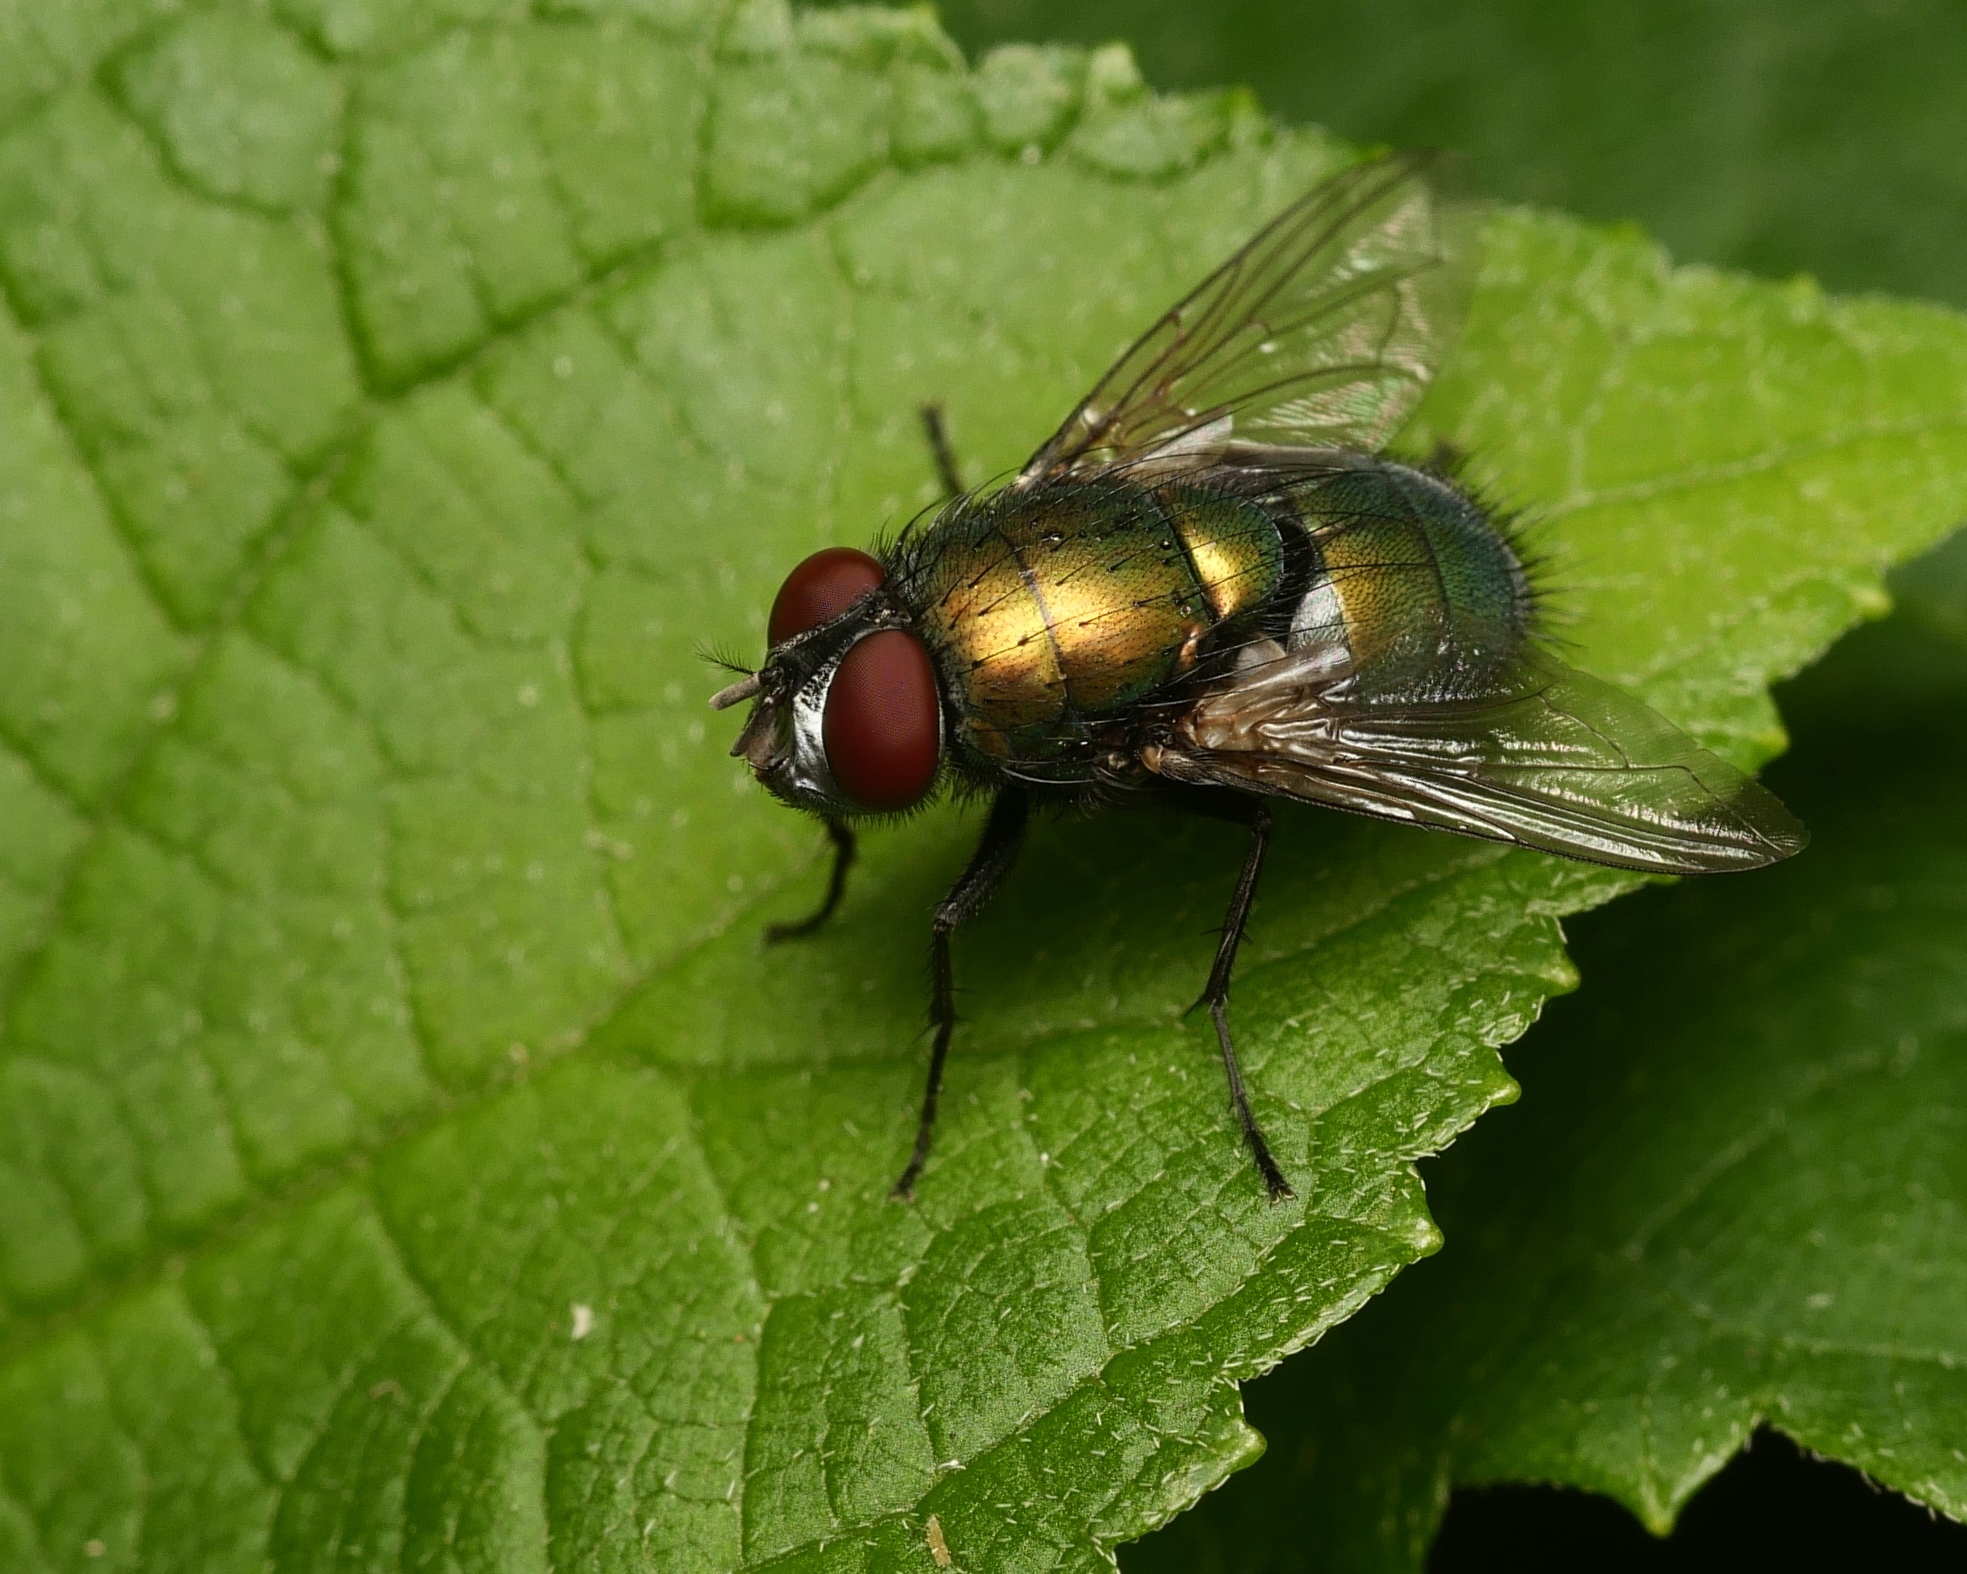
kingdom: Animalia
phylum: Arthropoda
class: Insecta
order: Diptera
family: Calliphoridae
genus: Lucilia
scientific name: Lucilia sericata
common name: Blow fly
